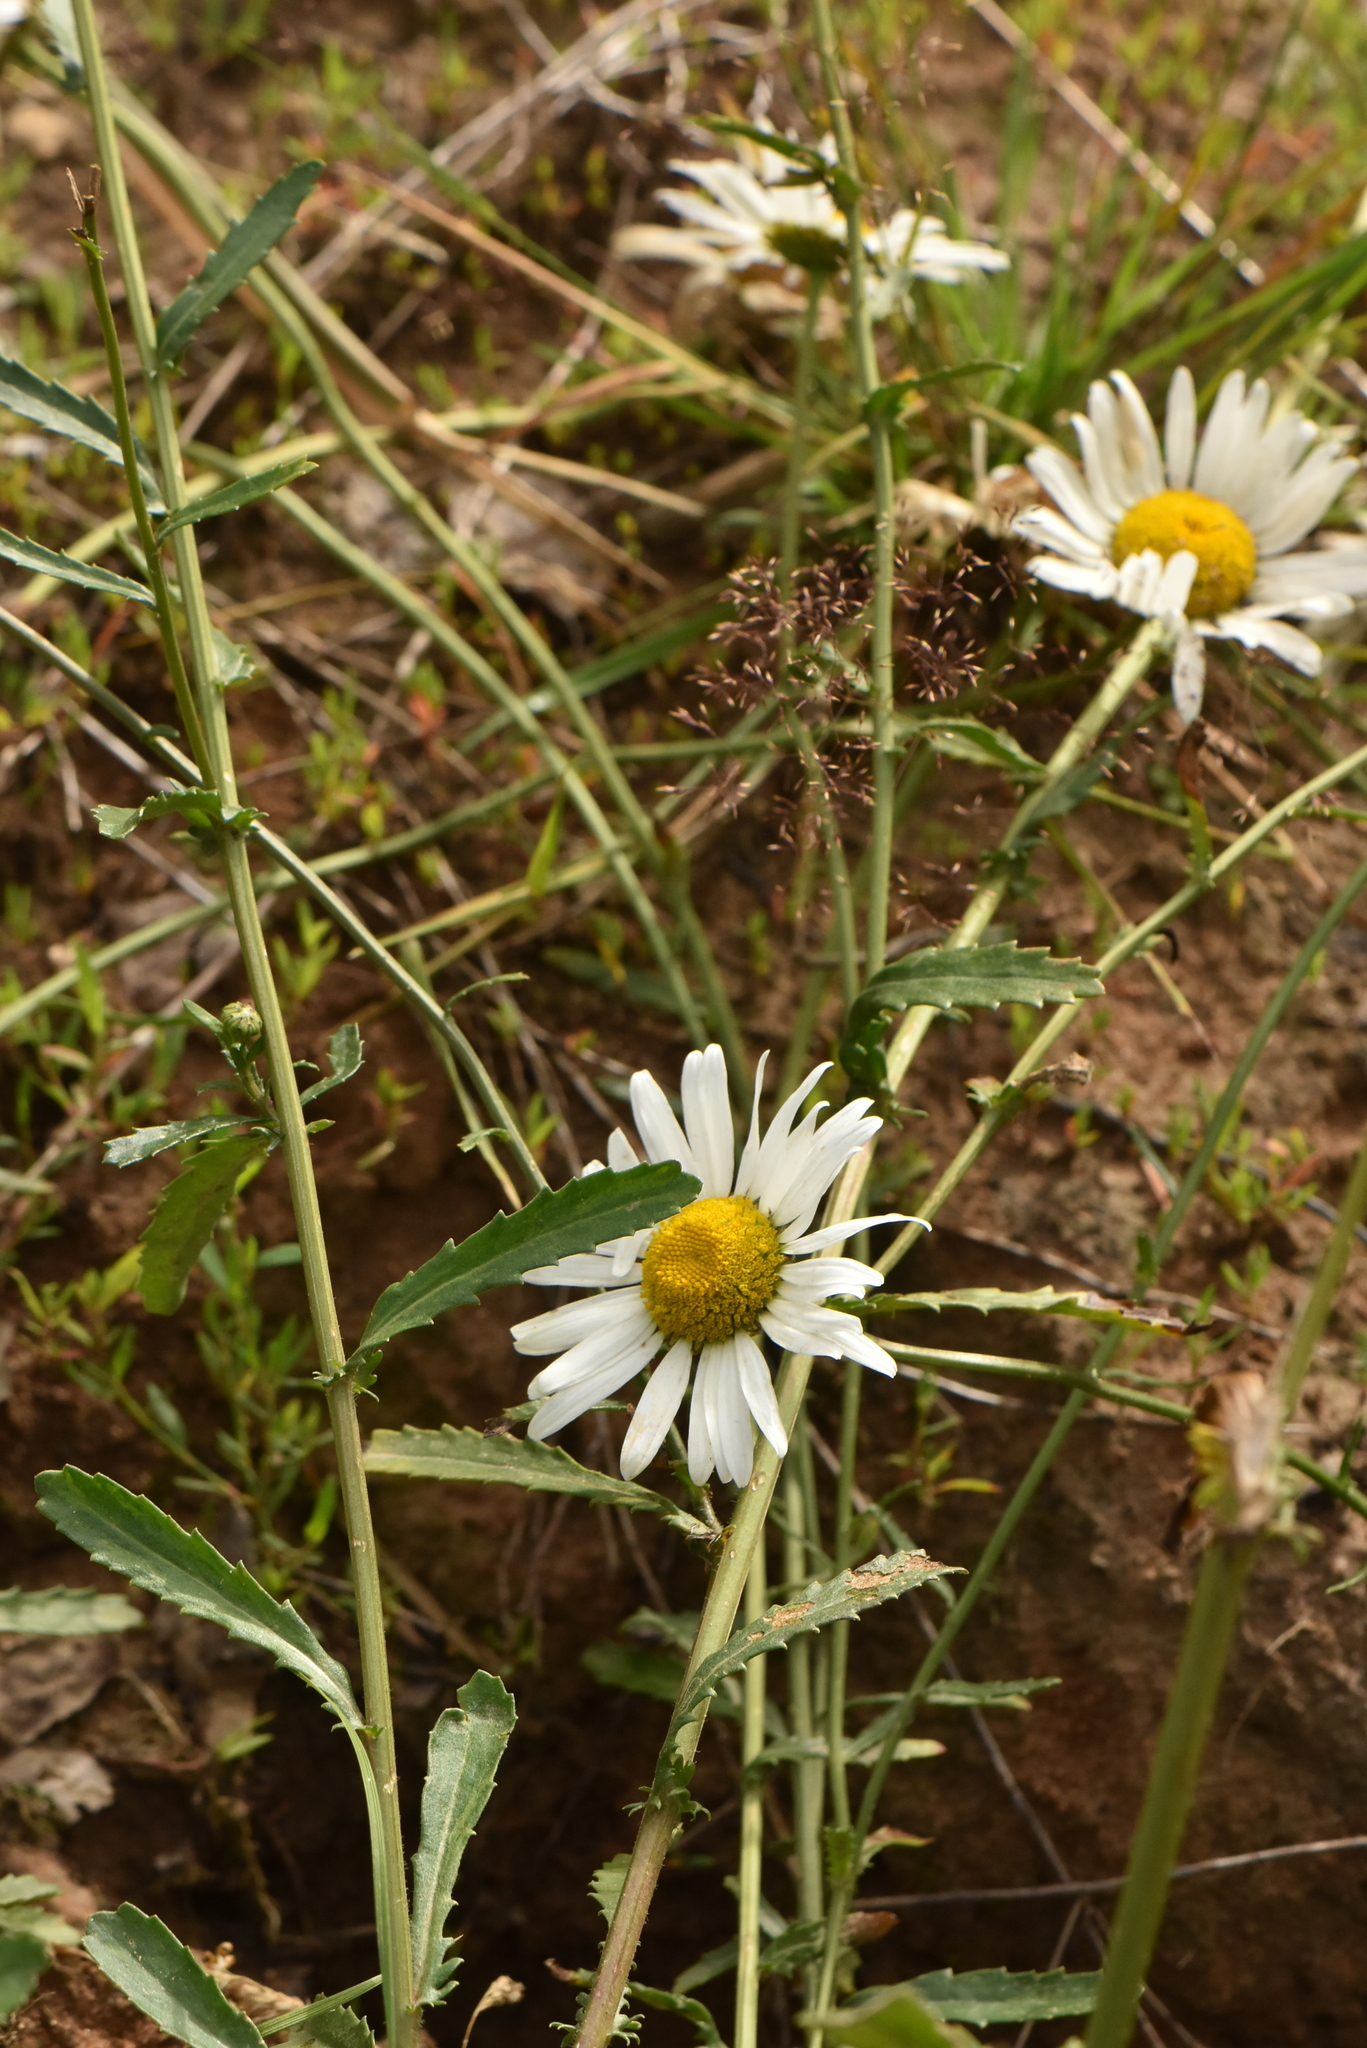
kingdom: Plantae
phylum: Tracheophyta
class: Magnoliopsida
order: Asterales
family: Asteraceae
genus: Leucanthemum
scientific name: Leucanthemum vulgare
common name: Oxeye daisy
